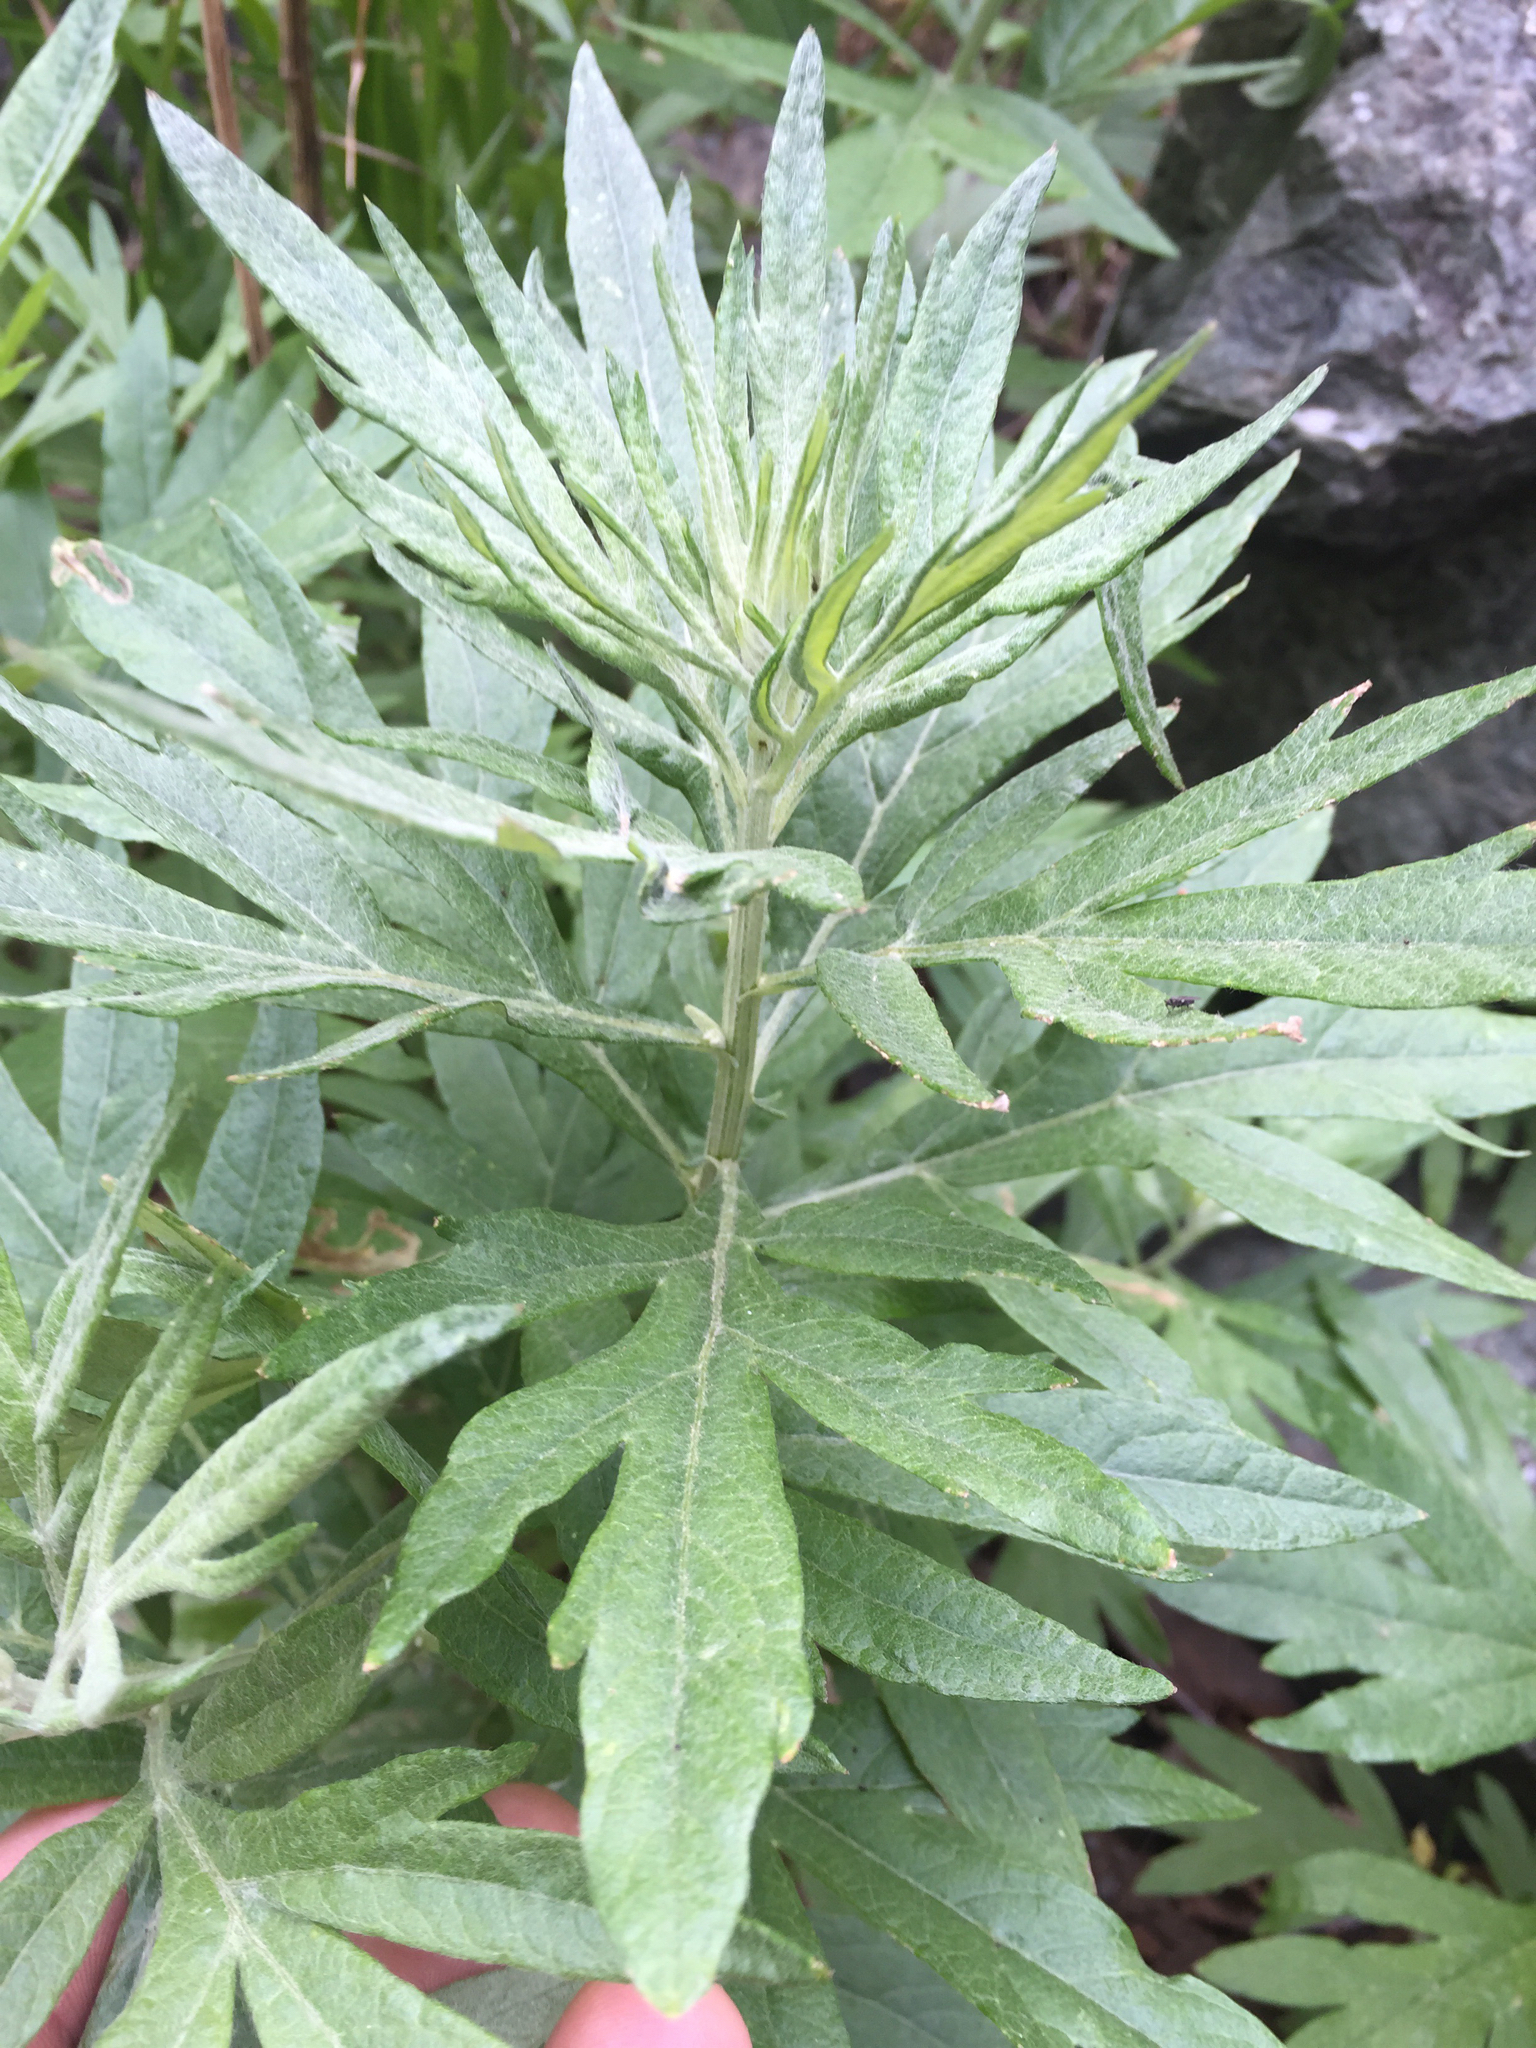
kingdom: Plantae
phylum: Tracheophyta
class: Magnoliopsida
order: Asterales
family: Asteraceae
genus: Artemisia
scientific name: Artemisia douglasiana
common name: Northwest mugwort
